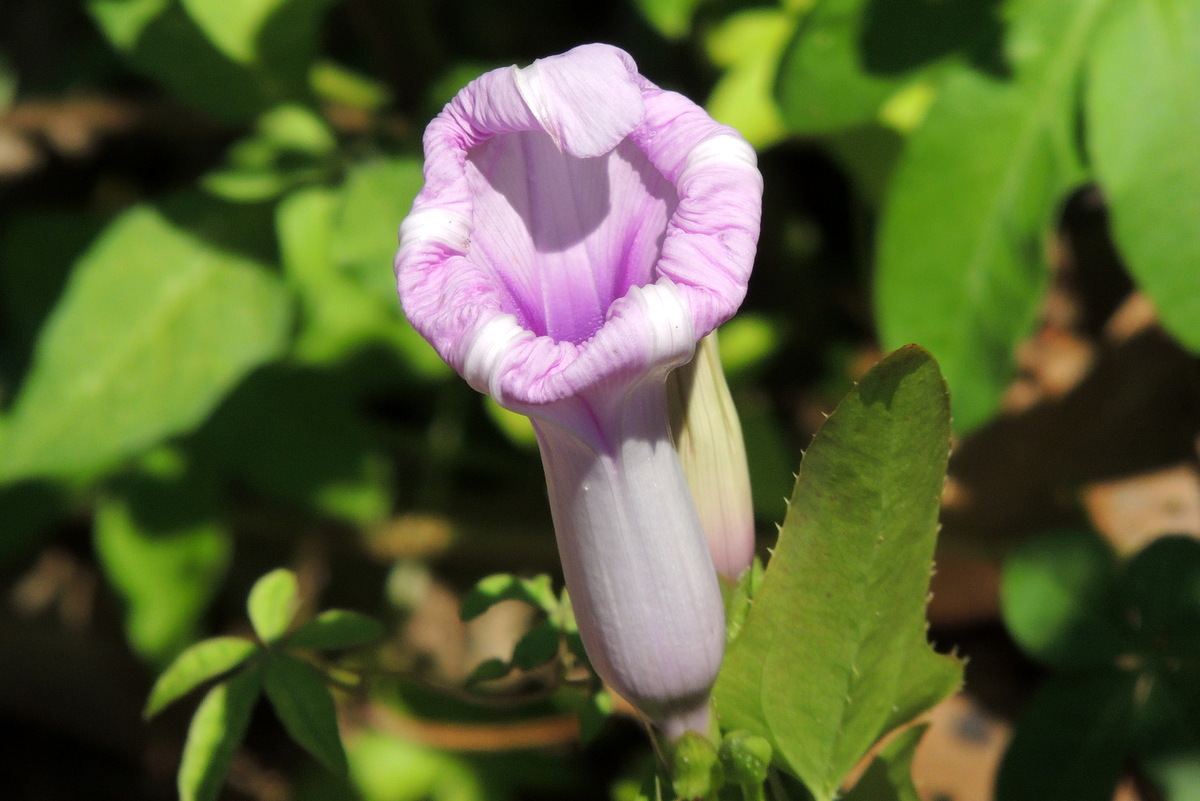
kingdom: Plantae
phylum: Tracheophyta
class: Magnoliopsida
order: Solanales
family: Convolvulaceae
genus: Ipomoea
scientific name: Ipomoea cairica
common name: Mile a minute vine
